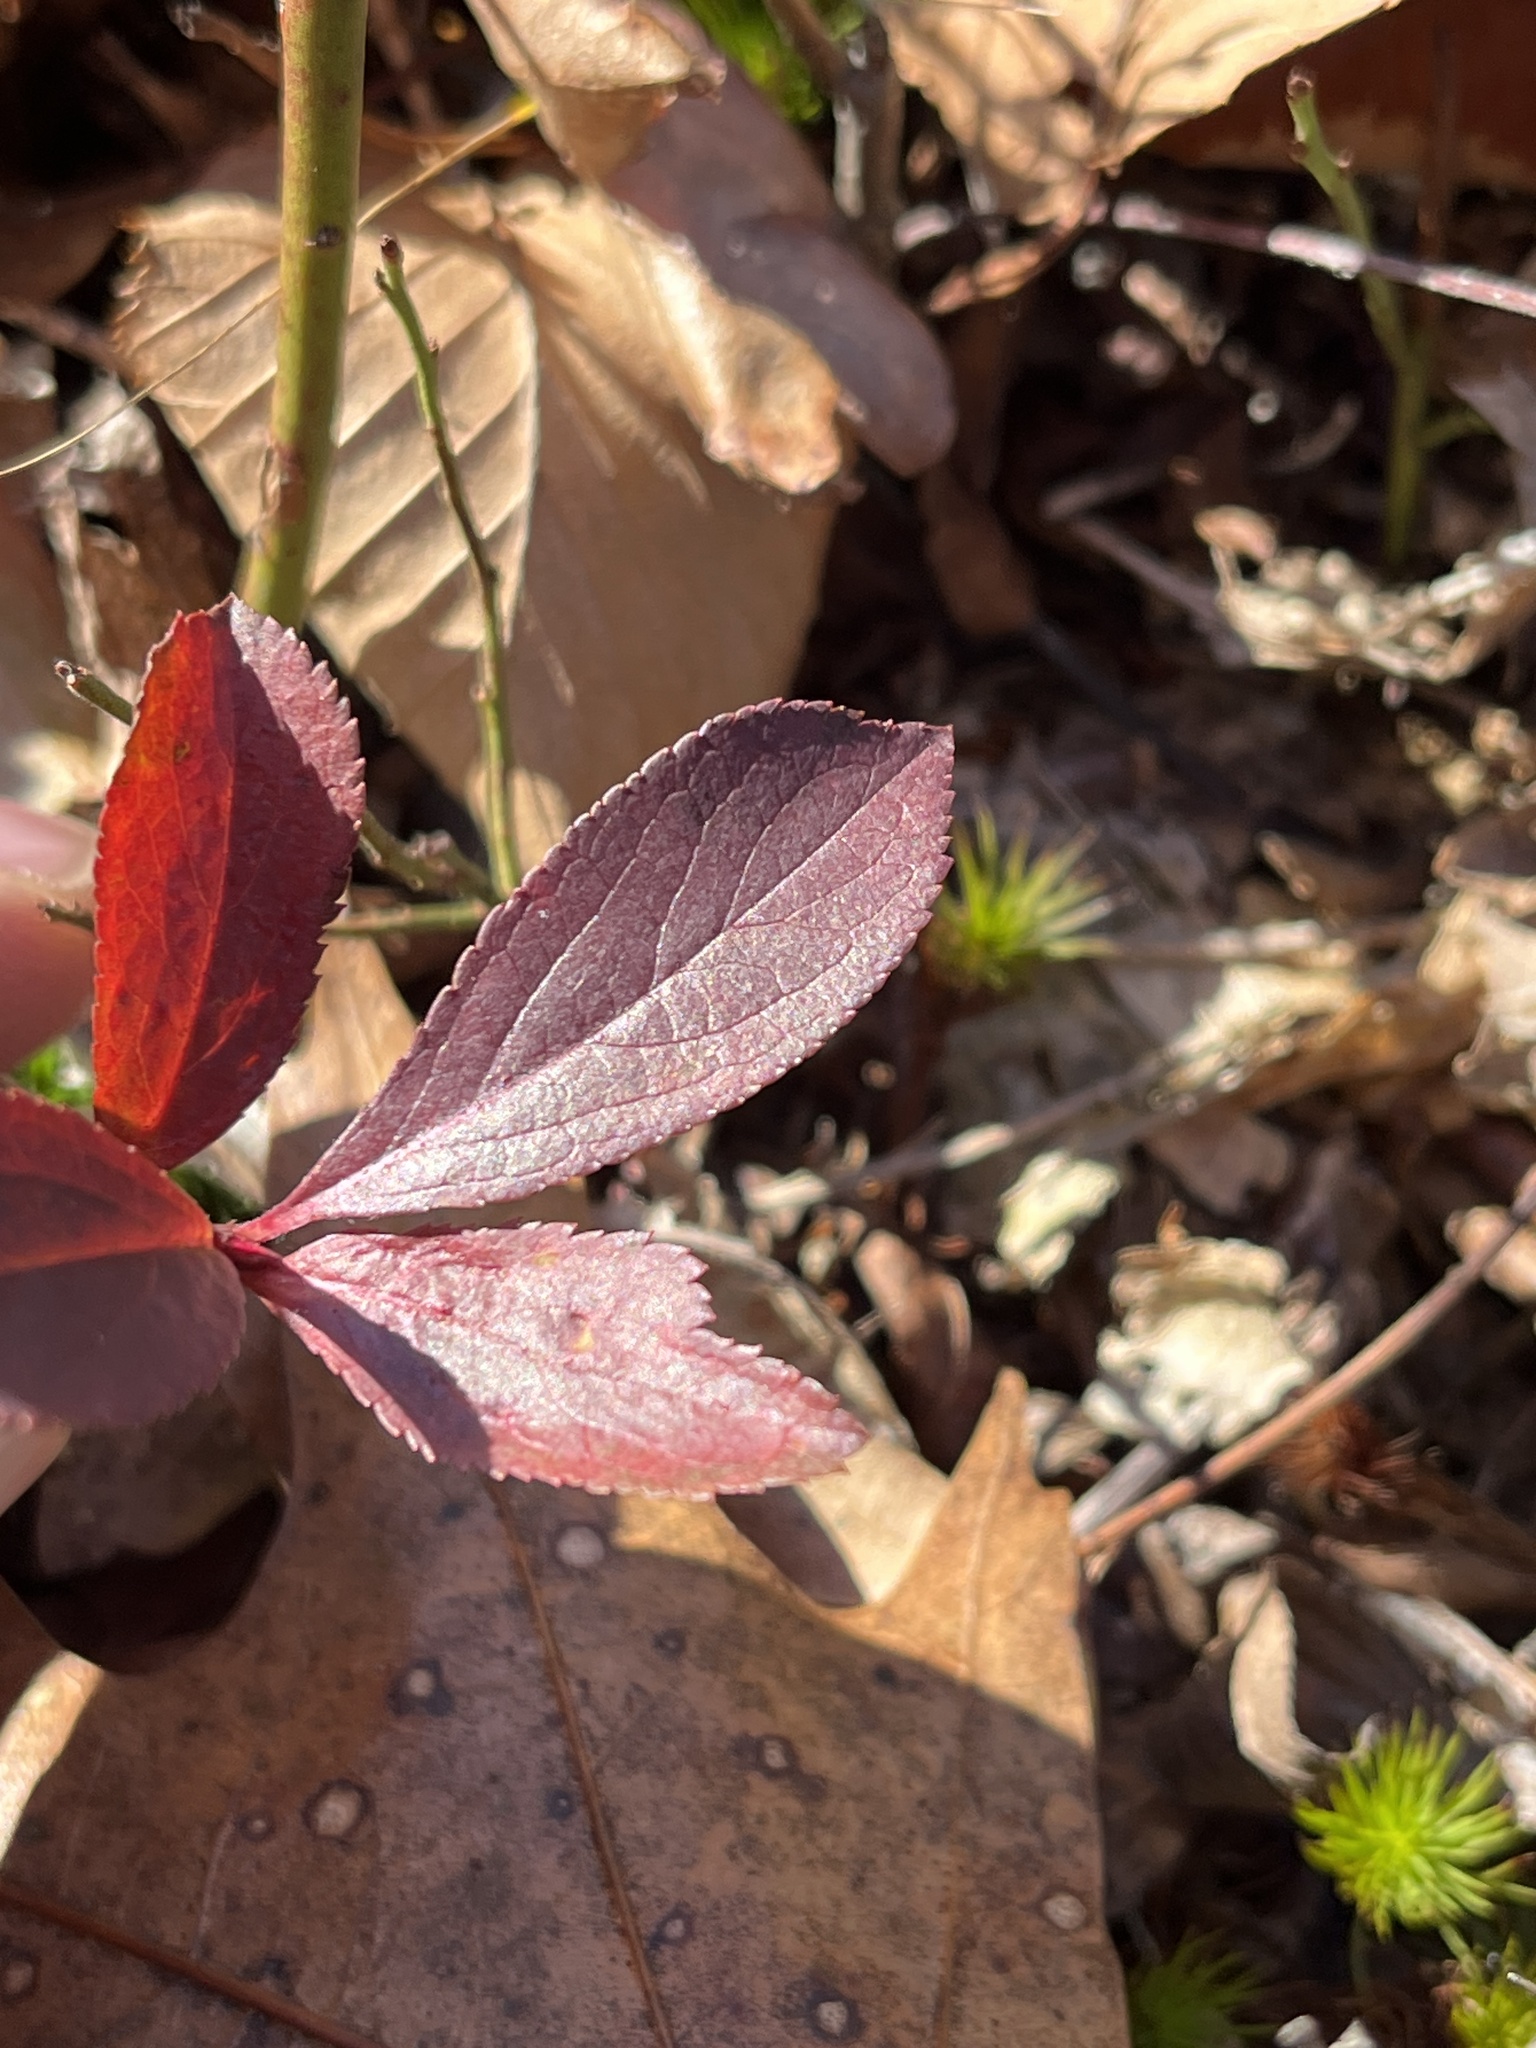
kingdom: Plantae
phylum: Tracheophyta
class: Magnoliopsida
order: Rosales
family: Rosaceae
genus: Aronia
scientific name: Aronia melanocarpa
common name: Black chokeberry
